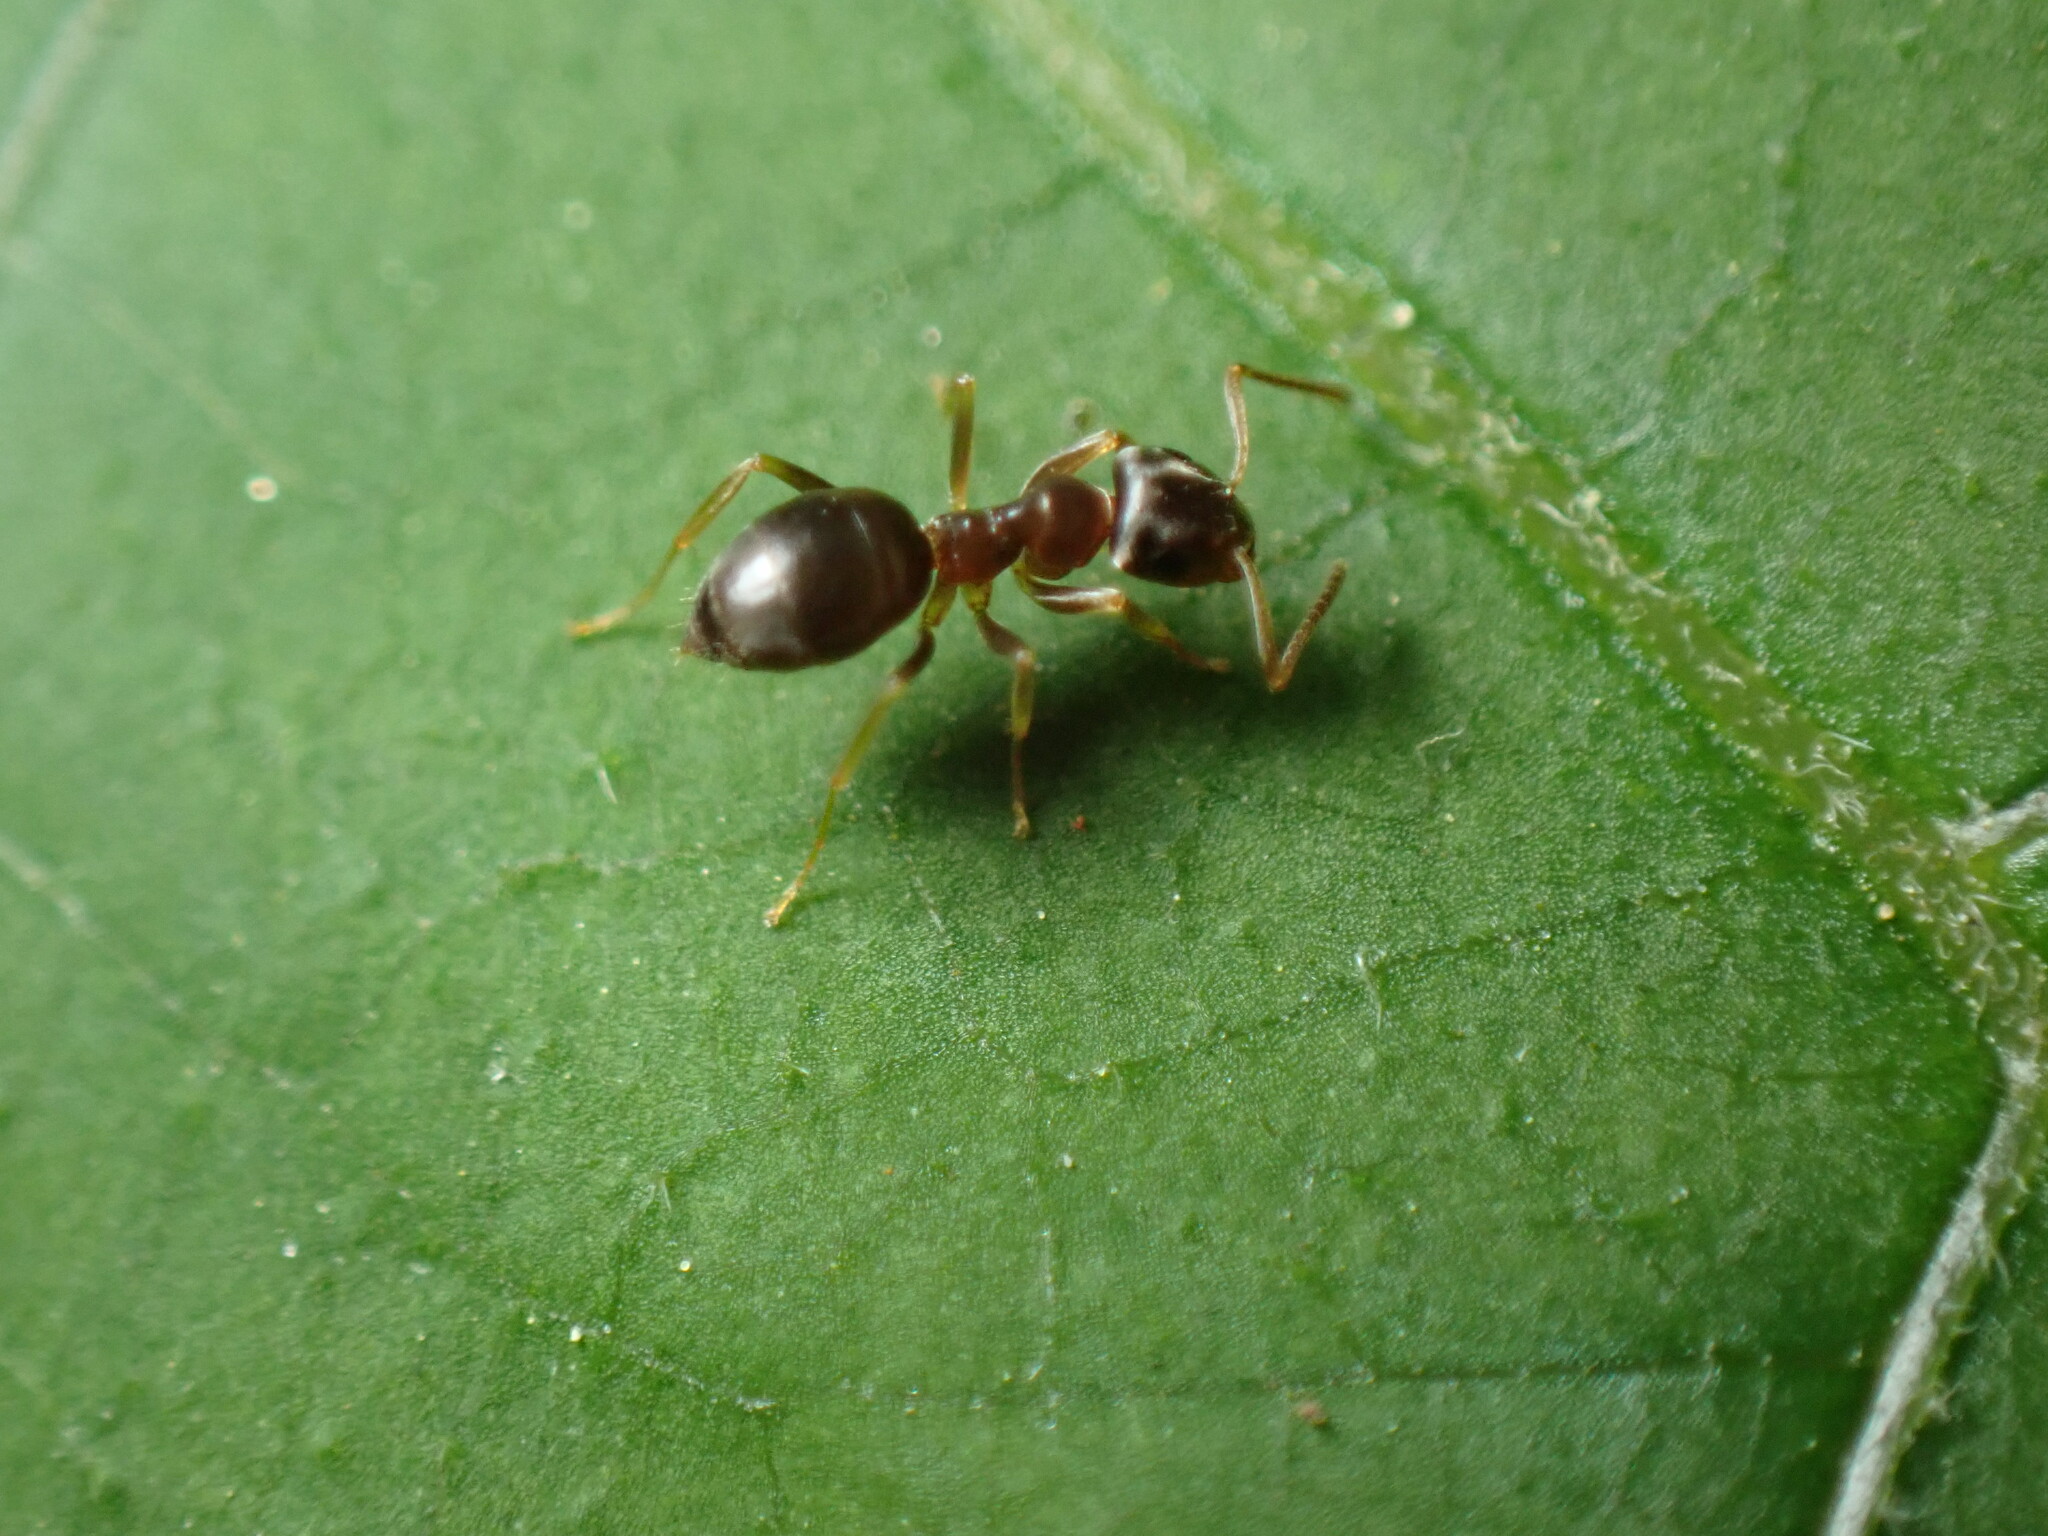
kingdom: Animalia
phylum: Arthropoda
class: Insecta
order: Hymenoptera
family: Formicidae
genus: Lasius
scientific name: Lasius americanus
